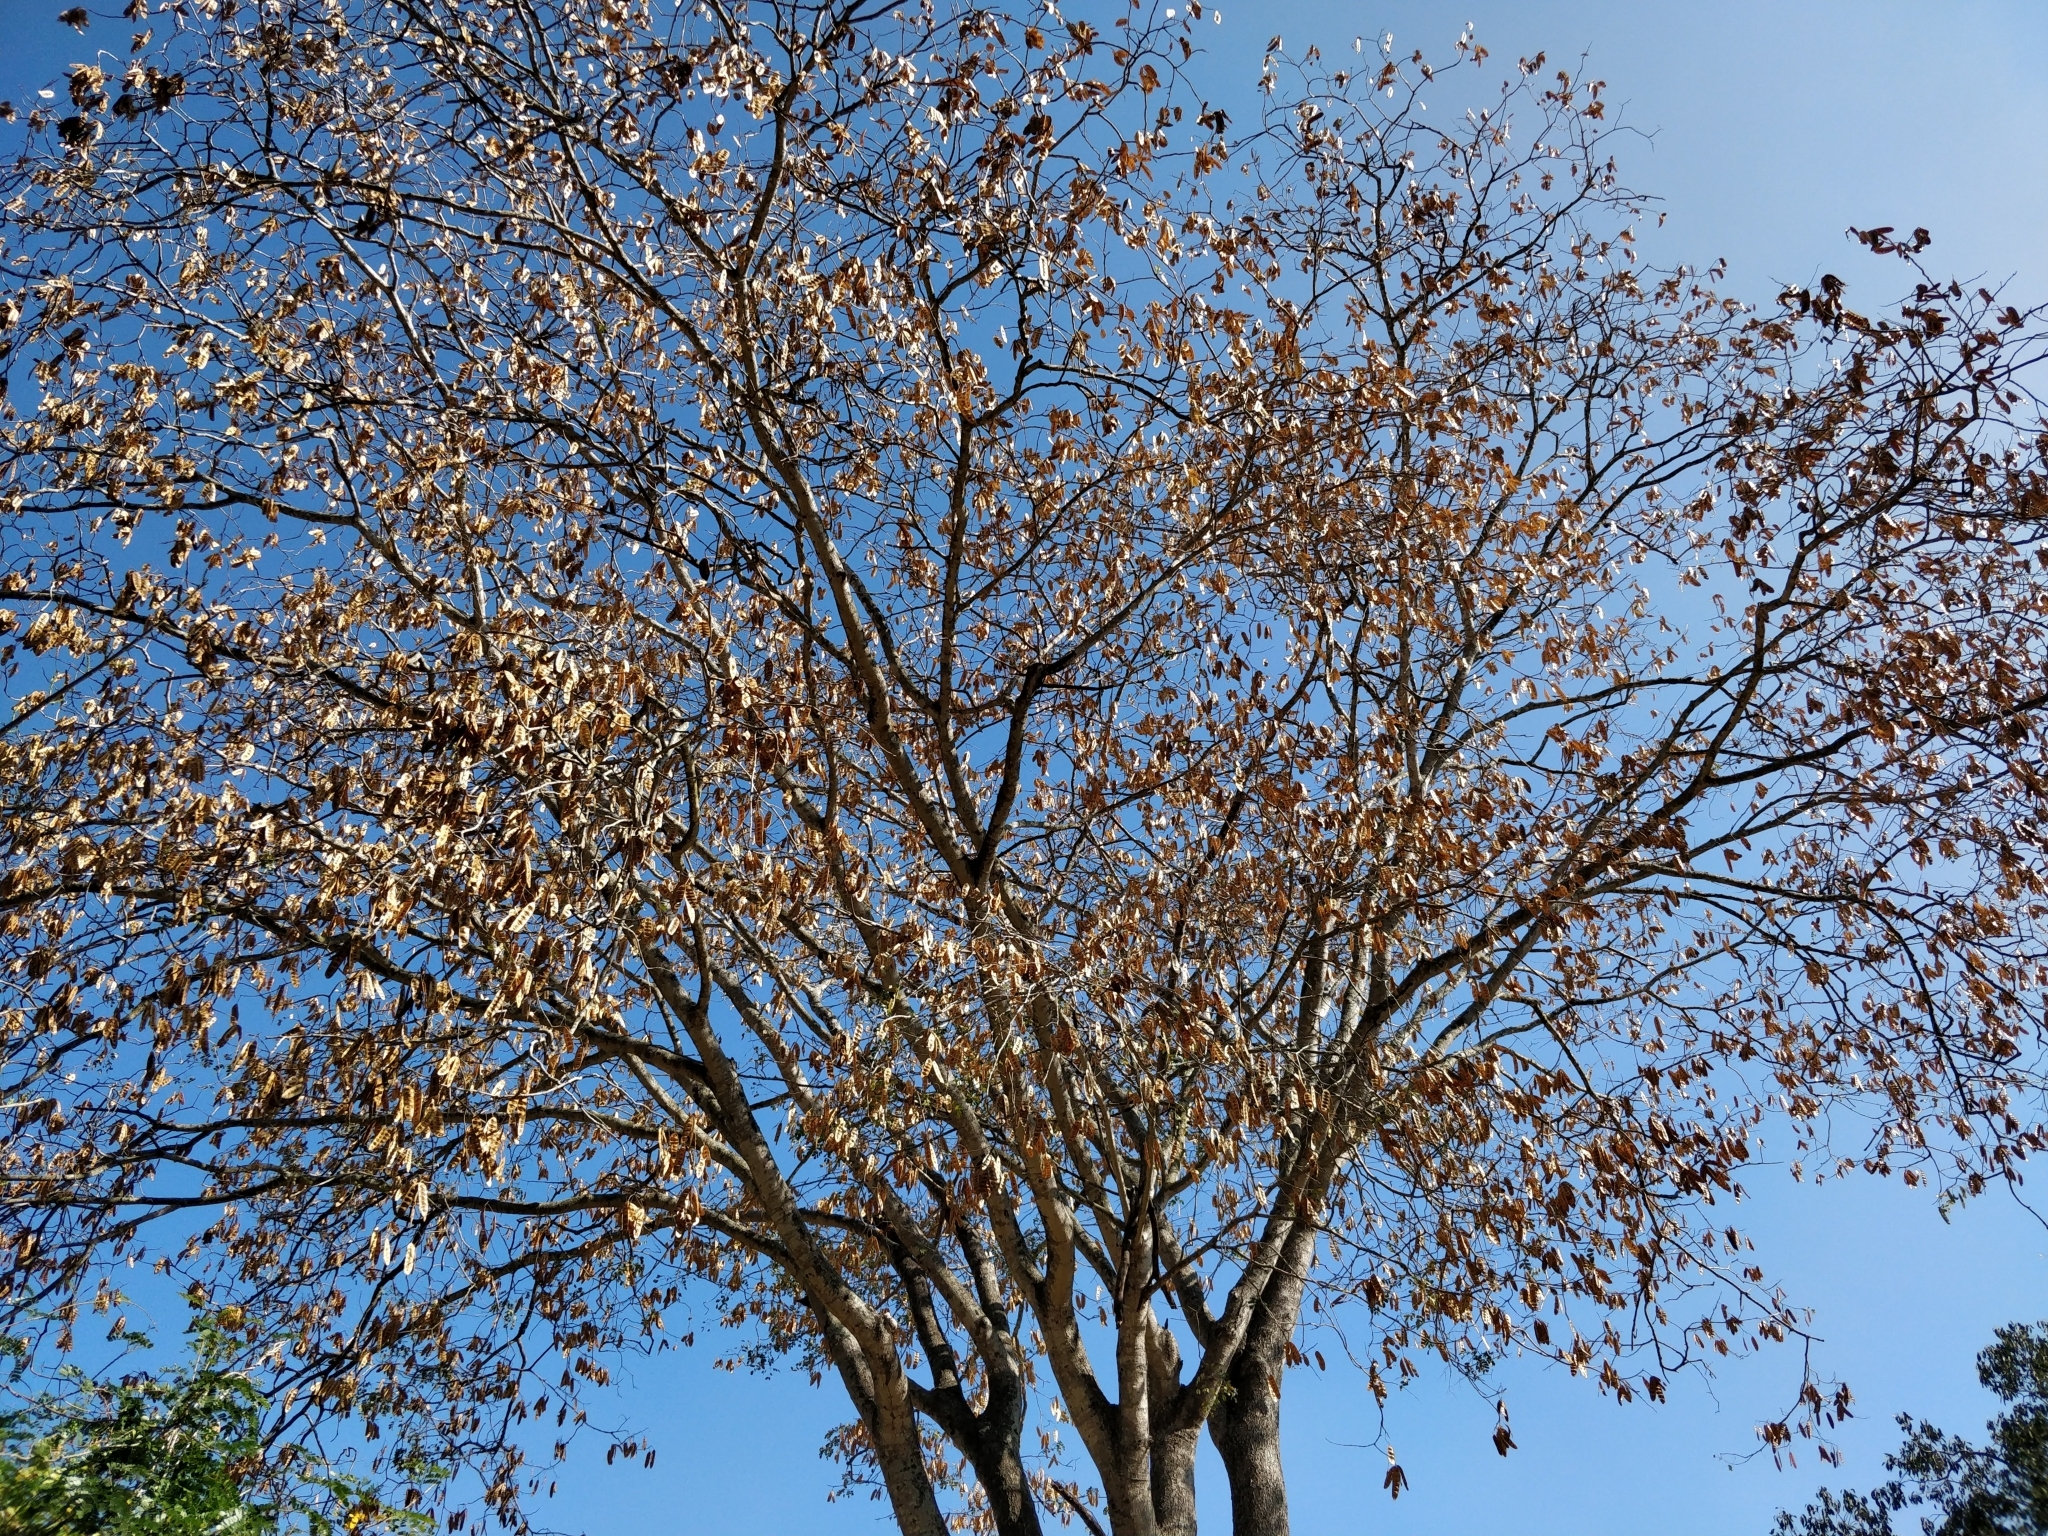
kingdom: Plantae
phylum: Tracheophyta
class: Magnoliopsida
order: Fabales
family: Fabaceae
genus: Albizia
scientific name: Albizia lebbeck
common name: Woman's tongue
